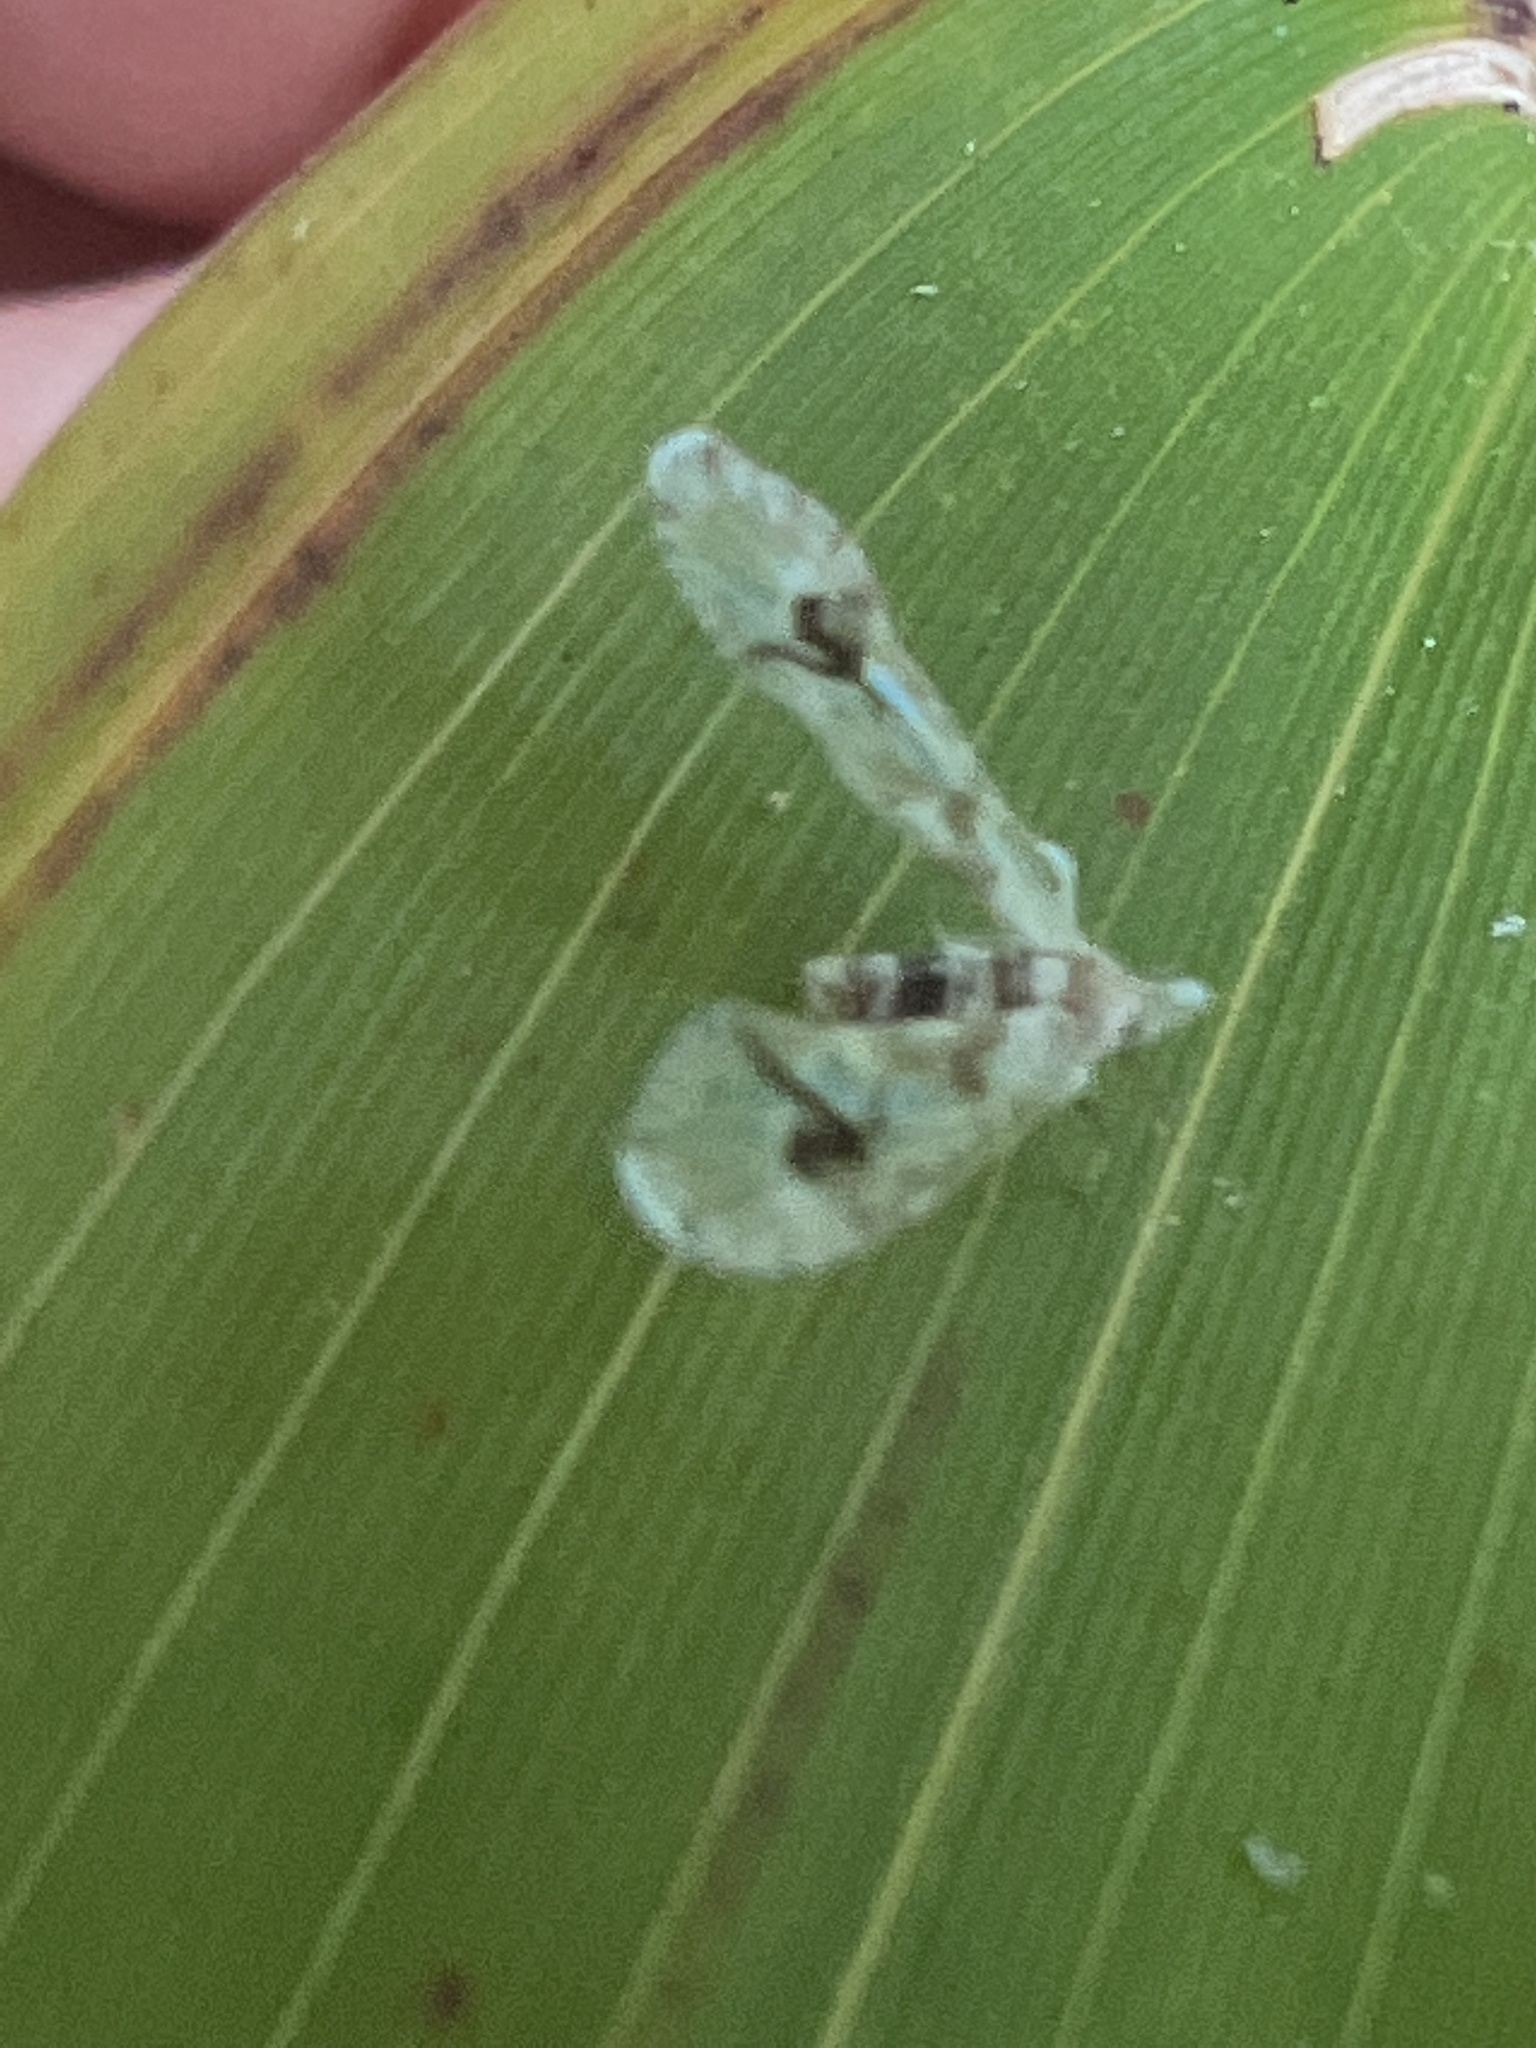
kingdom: Animalia
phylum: Arthropoda
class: Insecta
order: Hemiptera
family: Derbidae
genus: Anotia
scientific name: Anotia robertsonii
